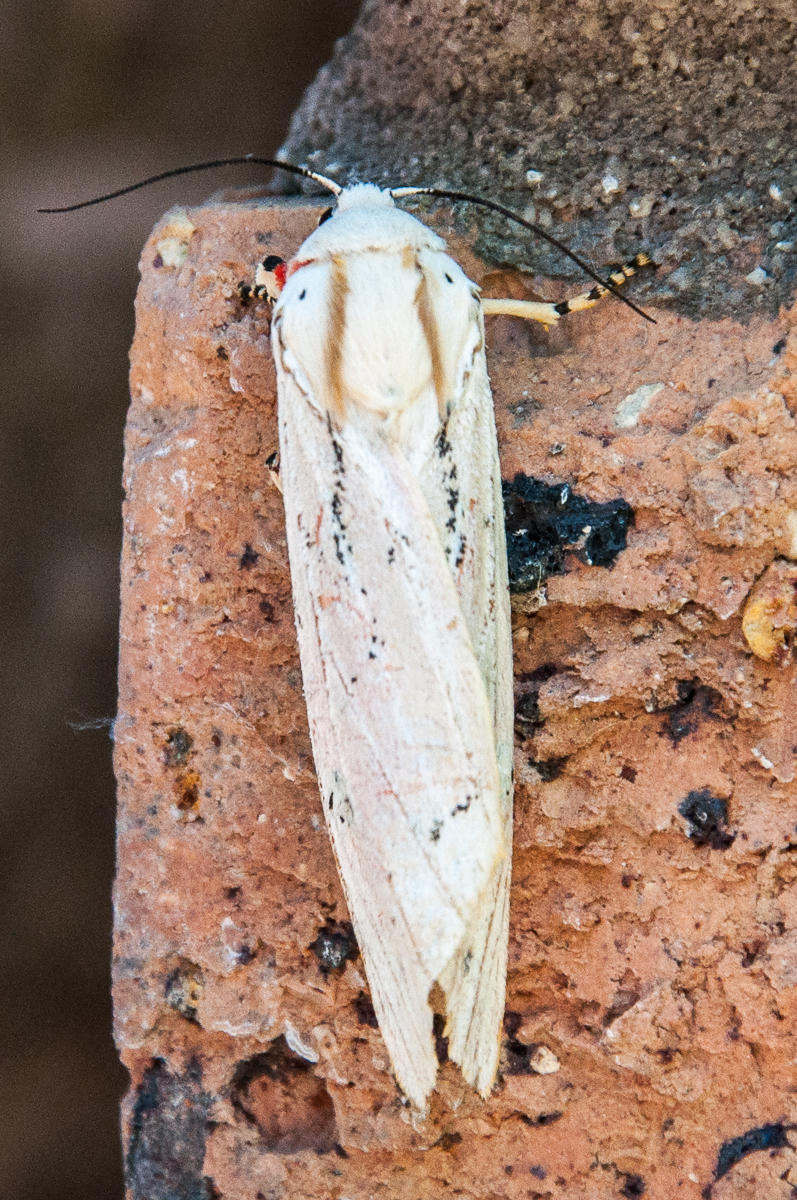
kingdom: Animalia
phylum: Arthropoda
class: Insecta
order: Lepidoptera
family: Erebidae
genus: Rhodogastria
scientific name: Rhodogastria amasis
